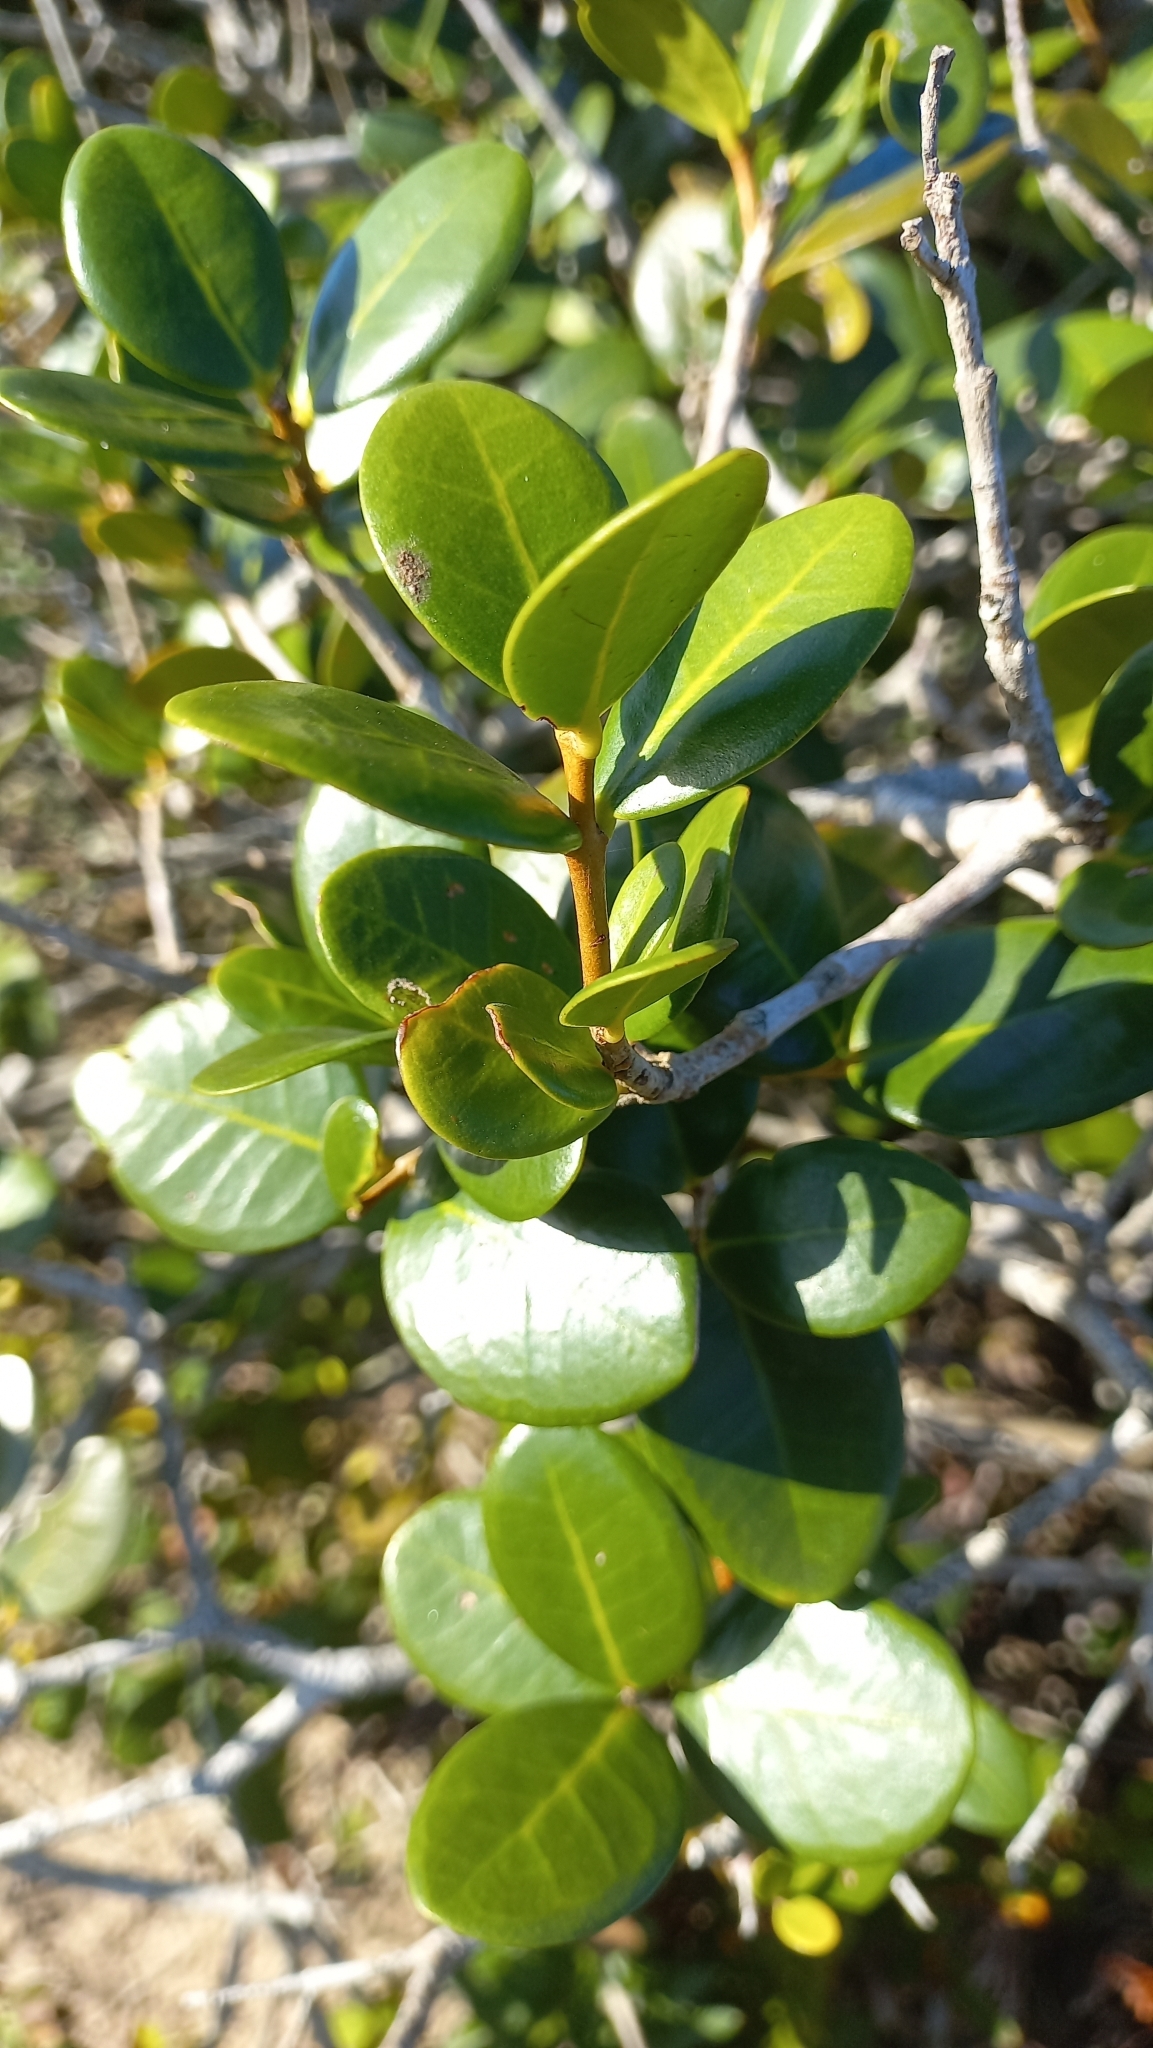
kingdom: Plantae
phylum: Tracheophyta
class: Magnoliopsida
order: Myrtales
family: Myrtaceae
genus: Eugenia
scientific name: Eugenia catharinae
